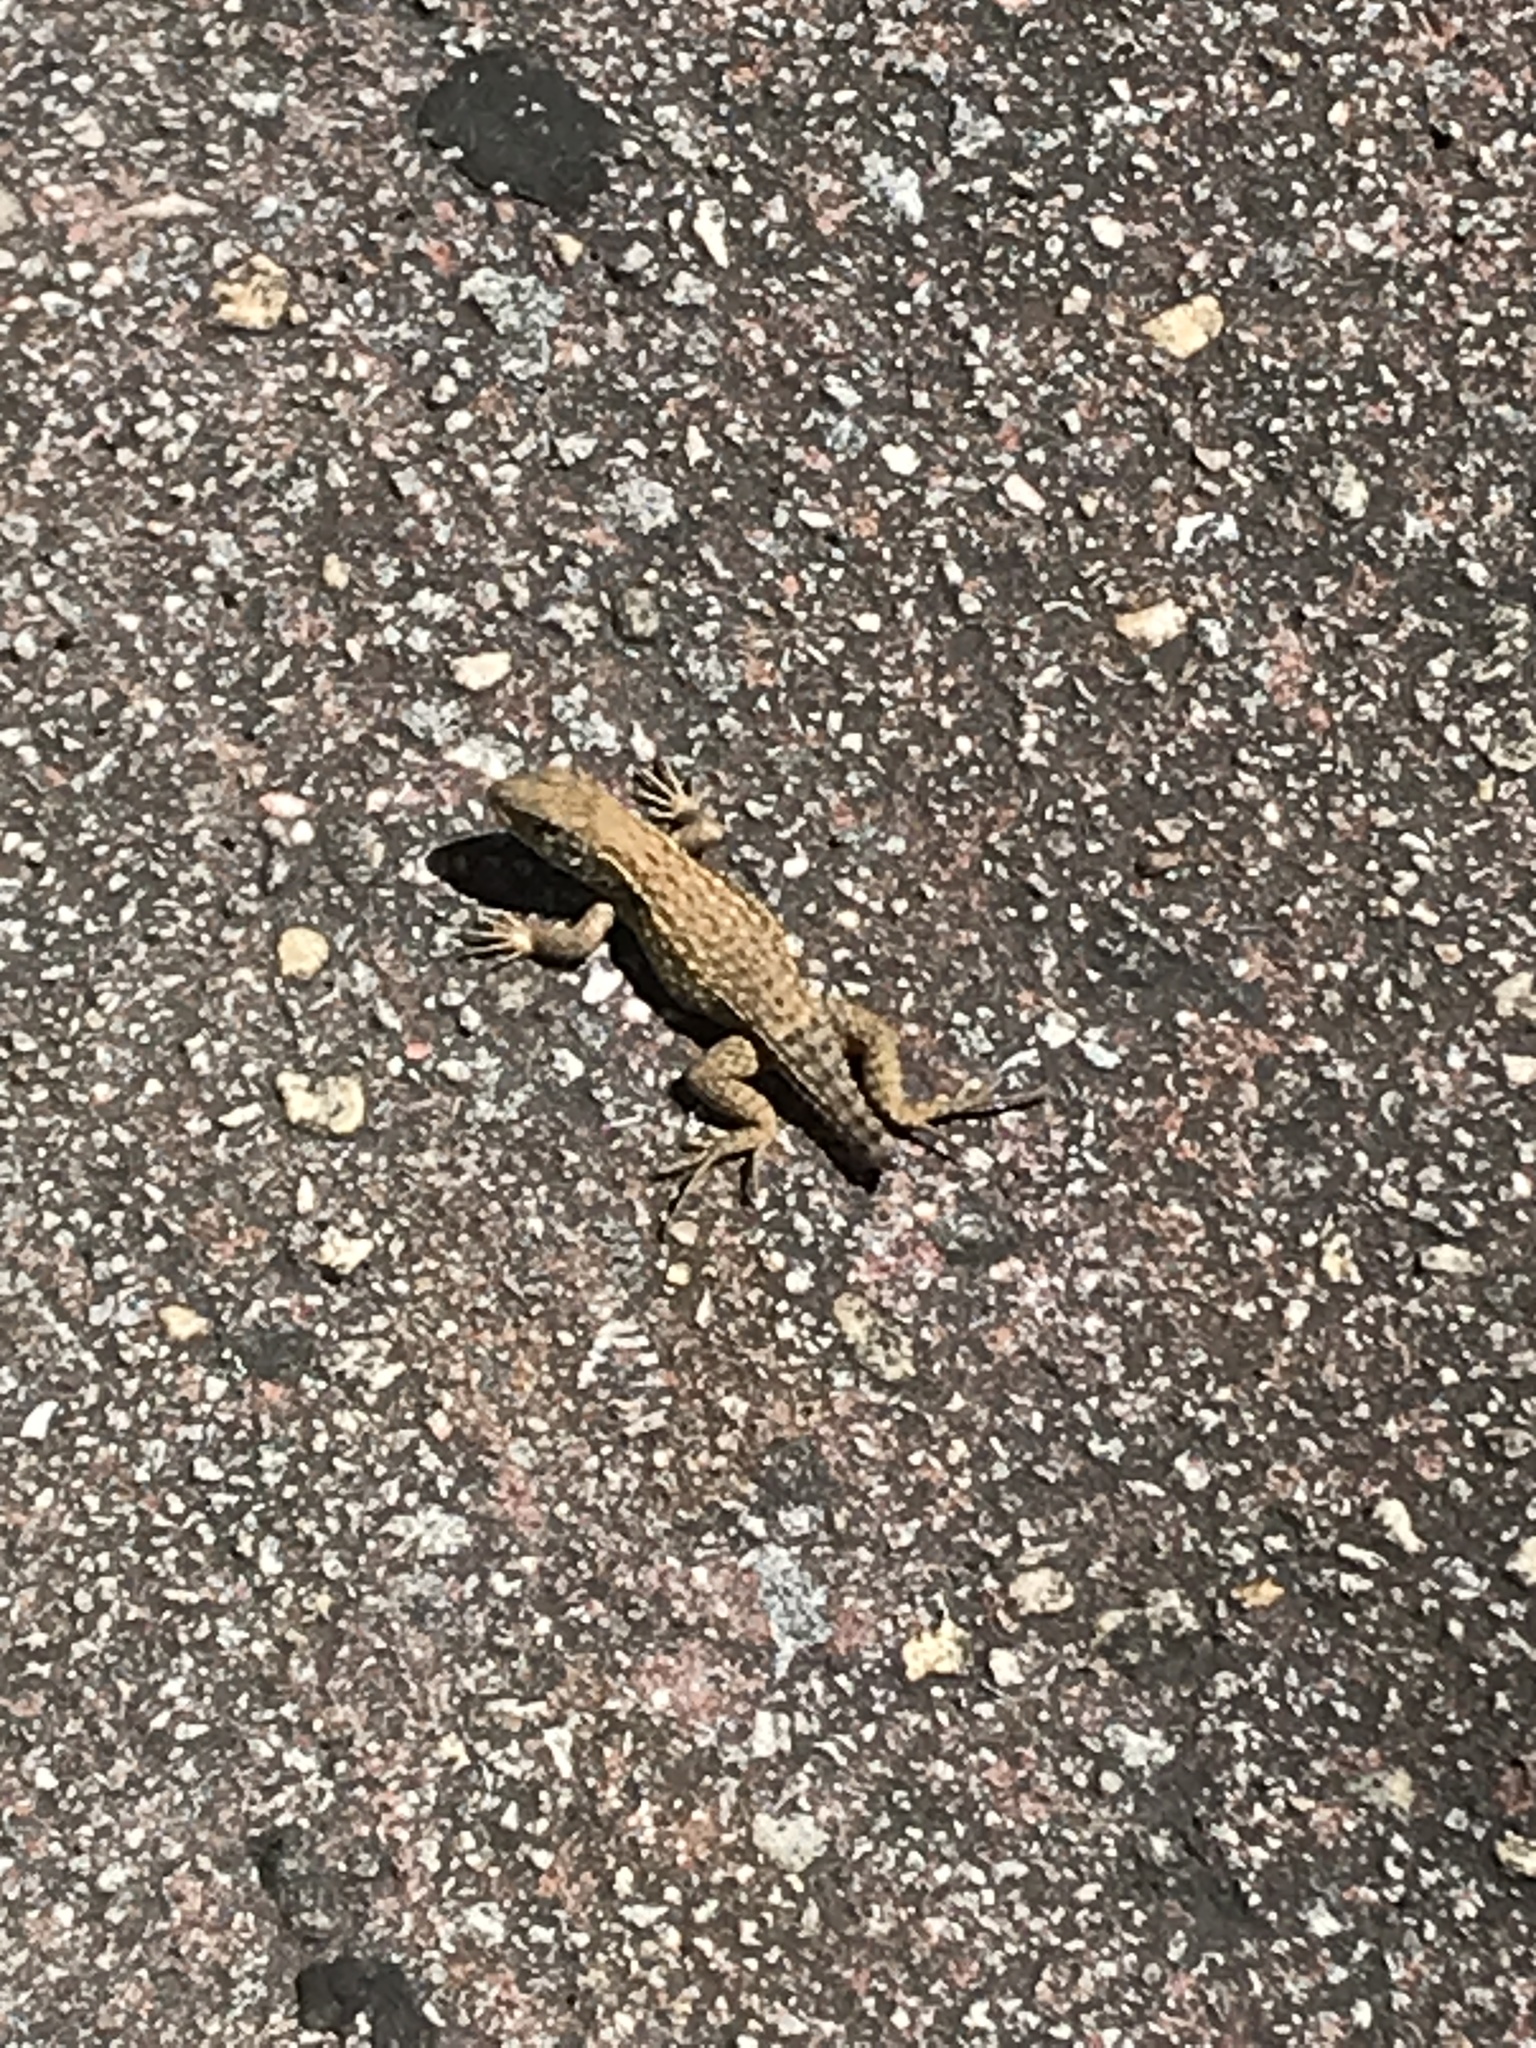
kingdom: Animalia
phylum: Chordata
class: Squamata
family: Leiocephalidae
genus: Leiocephalus
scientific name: Leiocephalus carinatus
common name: Northern curly-tailed lizard
